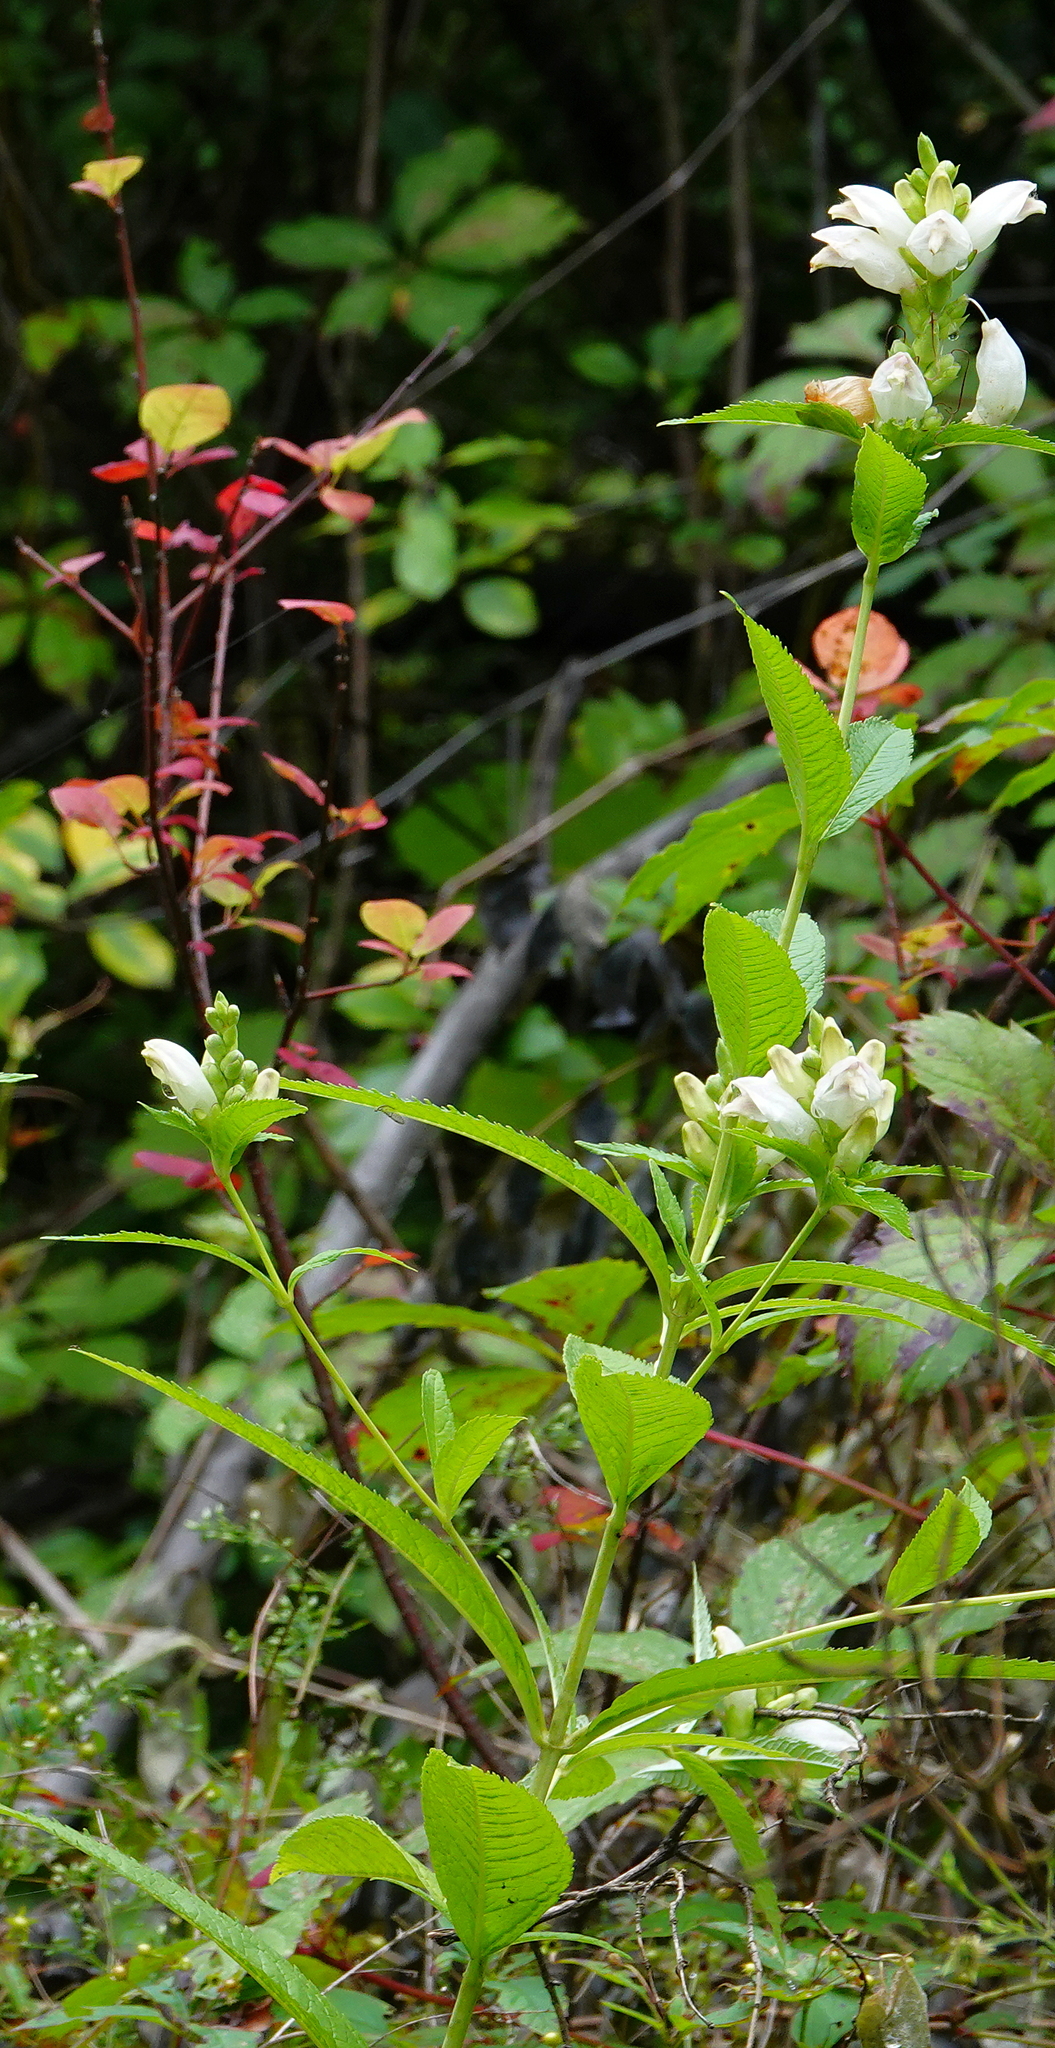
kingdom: Plantae
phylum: Tracheophyta
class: Magnoliopsida
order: Lamiales
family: Plantaginaceae
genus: Chelone
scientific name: Chelone glabra
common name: Snakehead
